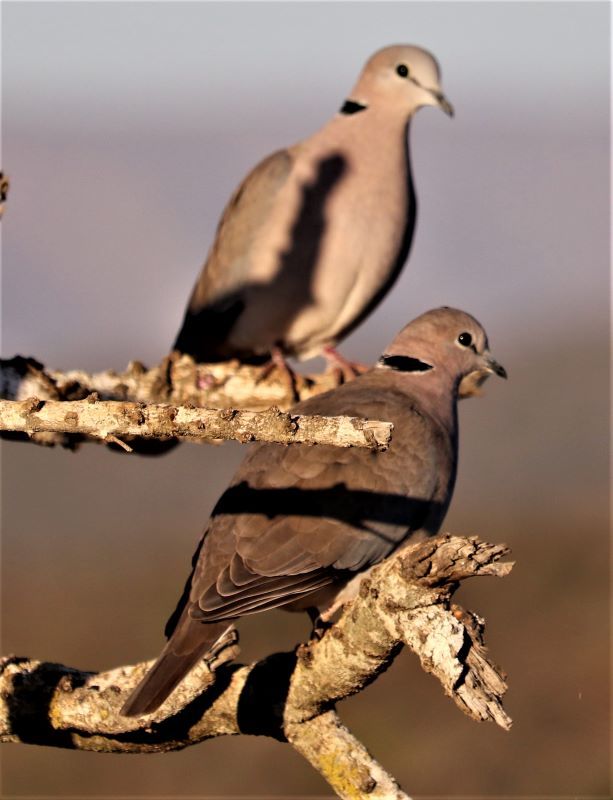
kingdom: Animalia
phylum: Chordata
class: Aves
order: Columbiformes
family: Columbidae
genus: Streptopelia
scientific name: Streptopelia capicola
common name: Ring-necked dove
